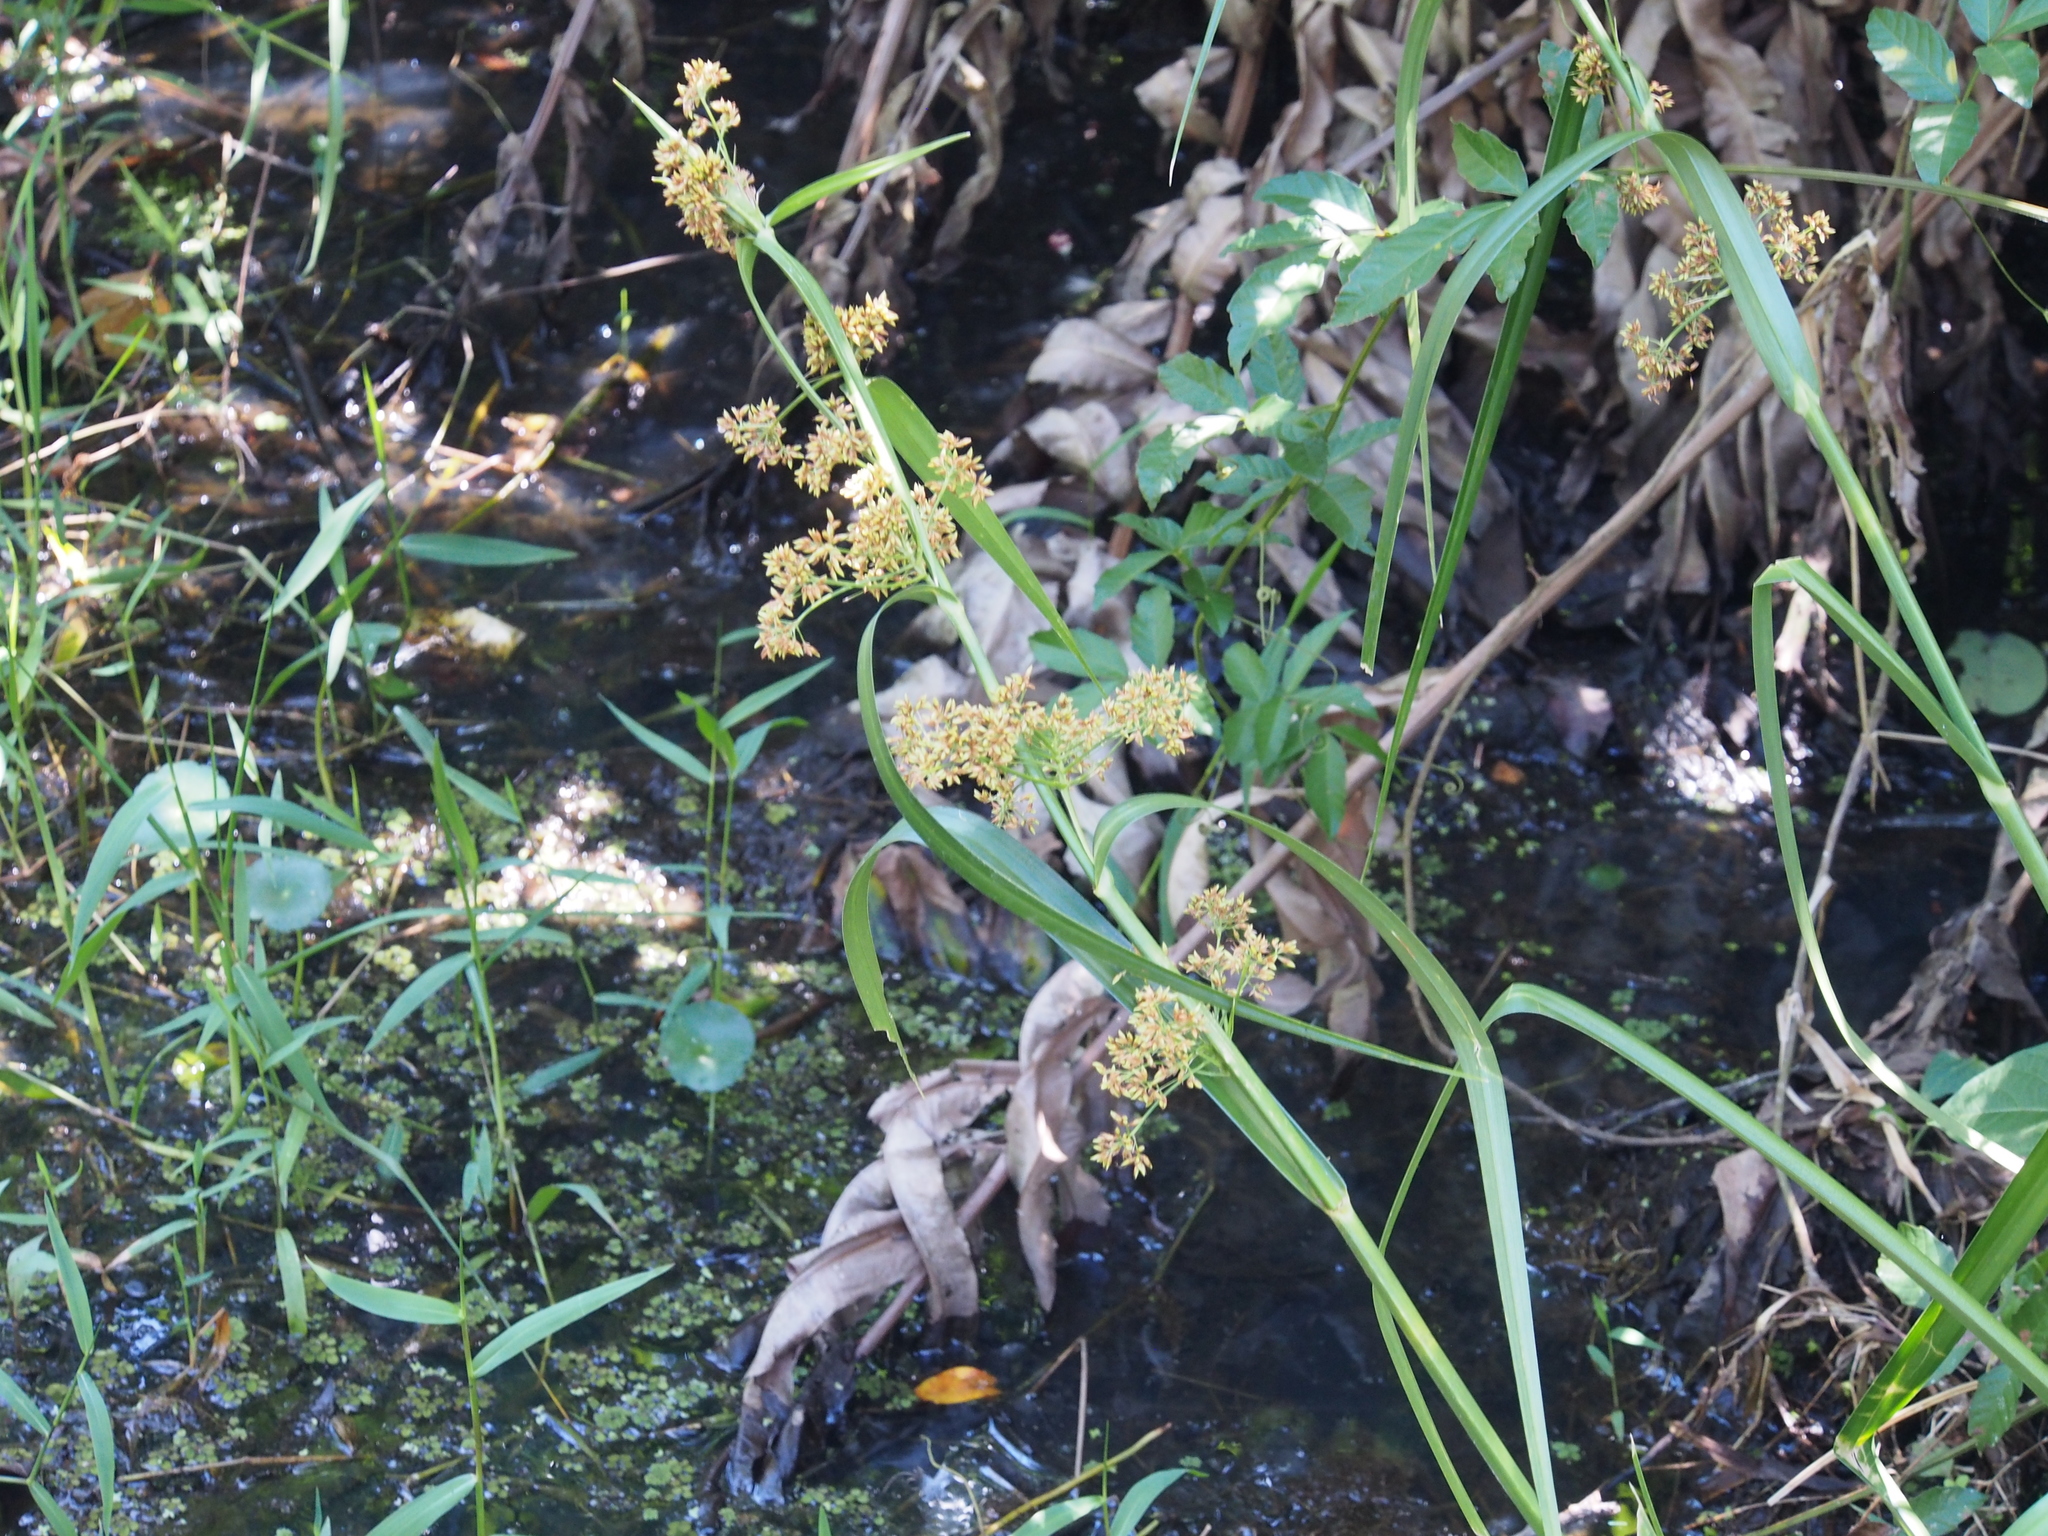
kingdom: Plantae
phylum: Tracheophyta
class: Liliopsida
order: Poales
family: Cyperaceae
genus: Becquerelia
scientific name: Becquerelia cymosa
